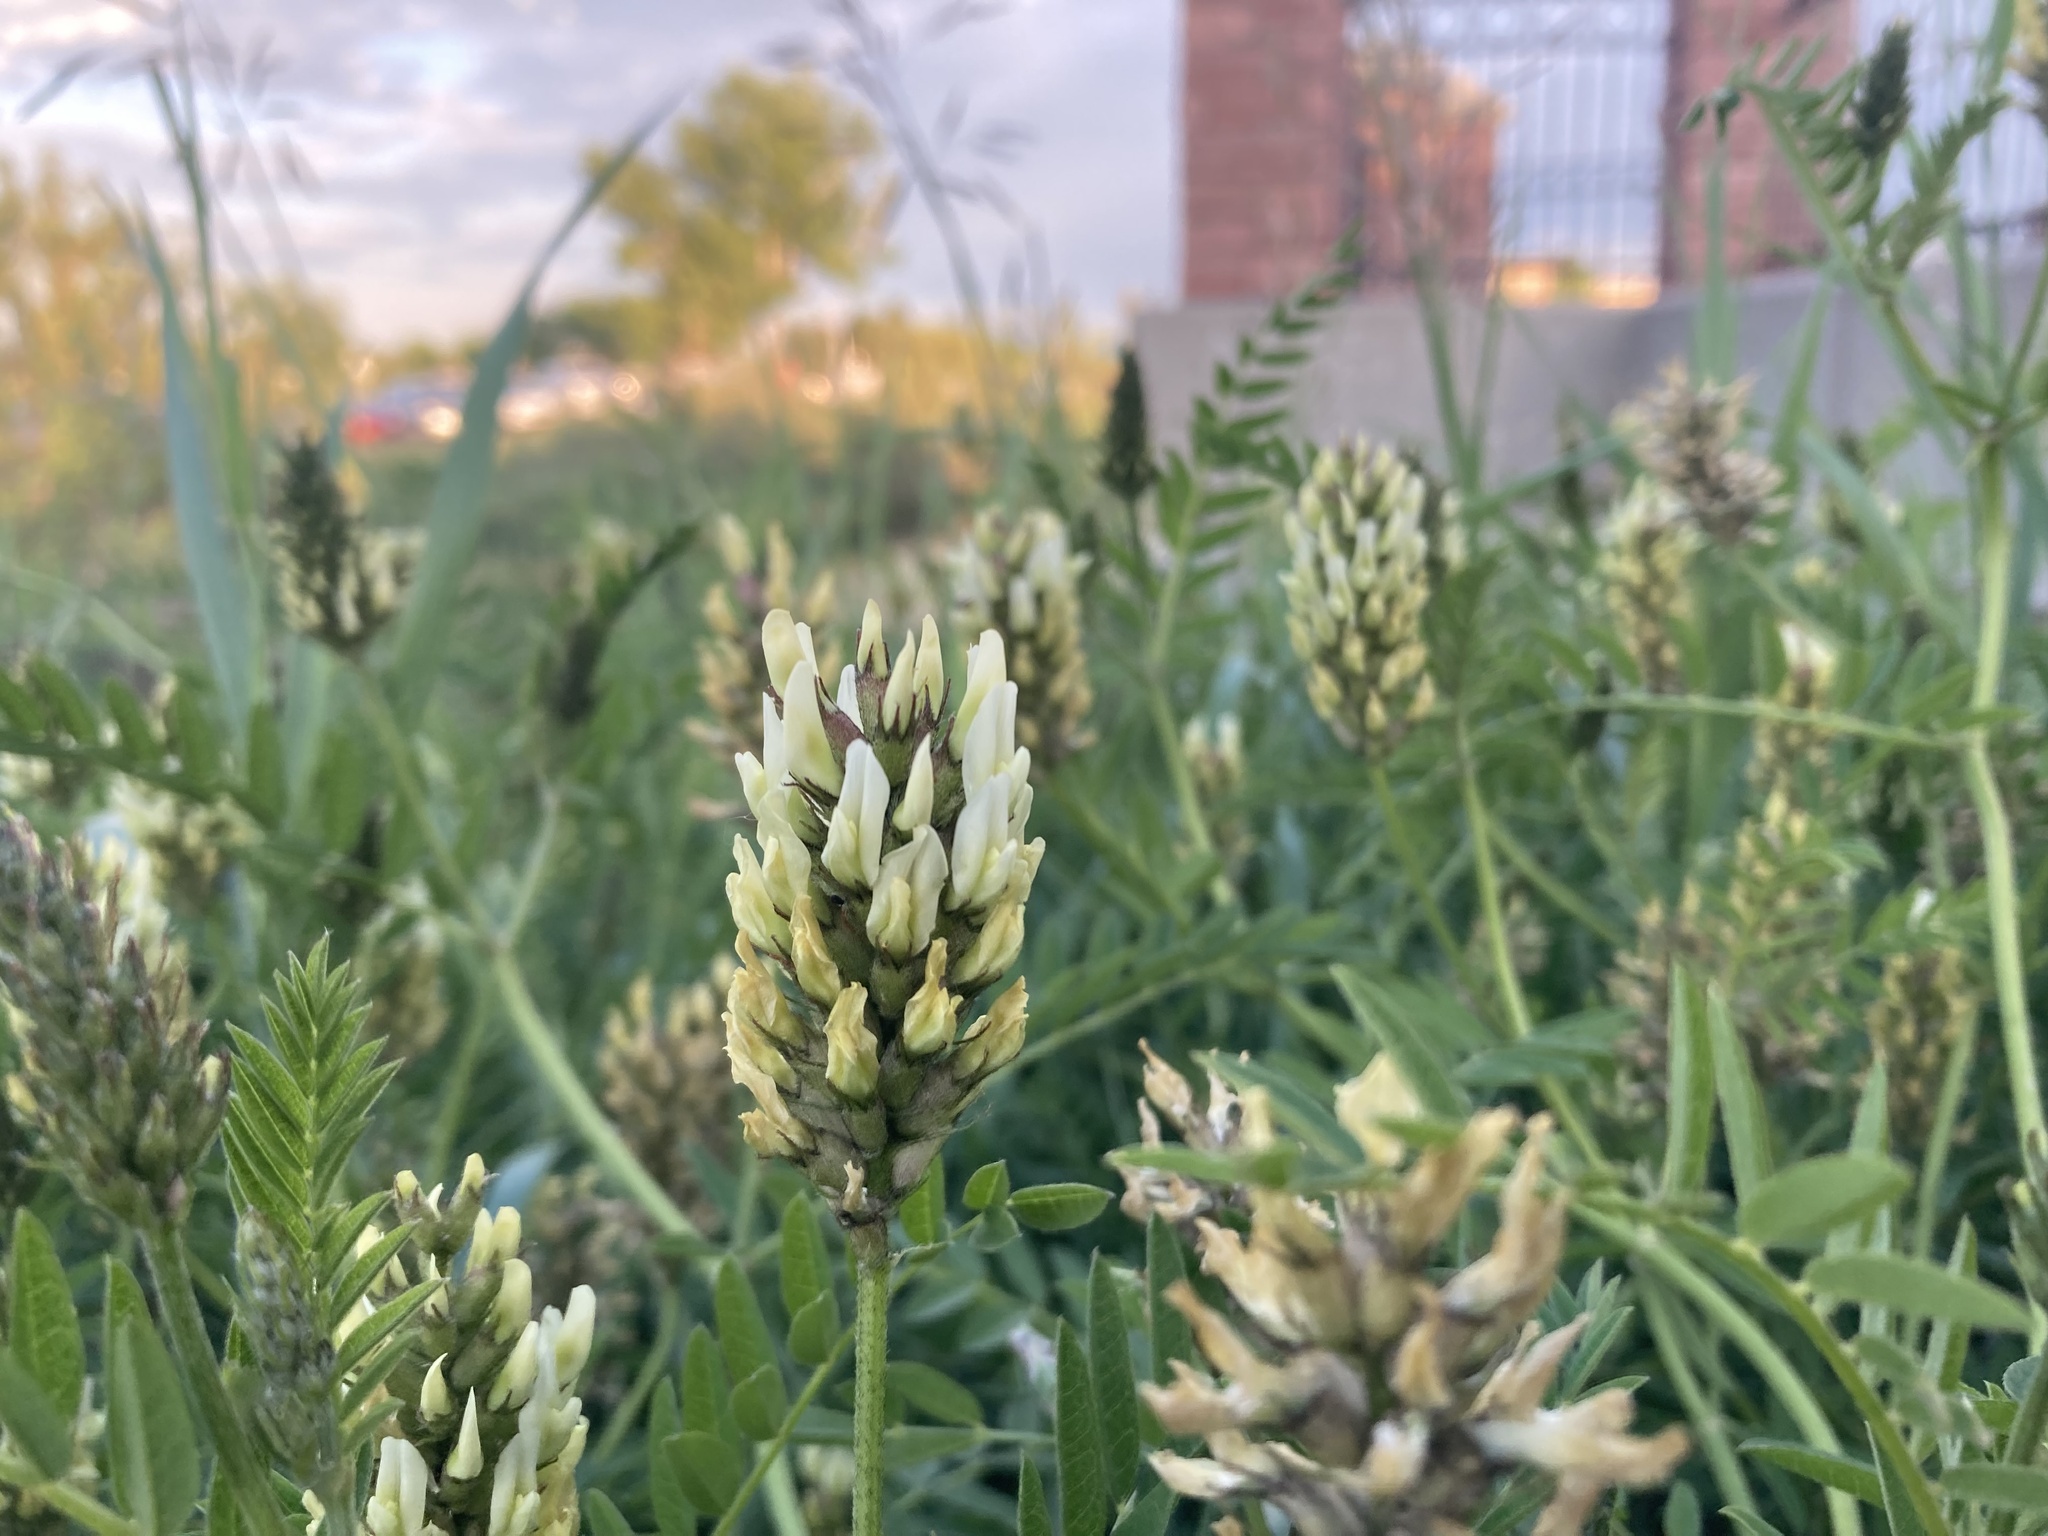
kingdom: Plantae
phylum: Tracheophyta
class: Magnoliopsida
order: Fabales
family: Fabaceae
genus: Astragalus
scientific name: Astragalus cicer
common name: Chick-pea milk-vetch
